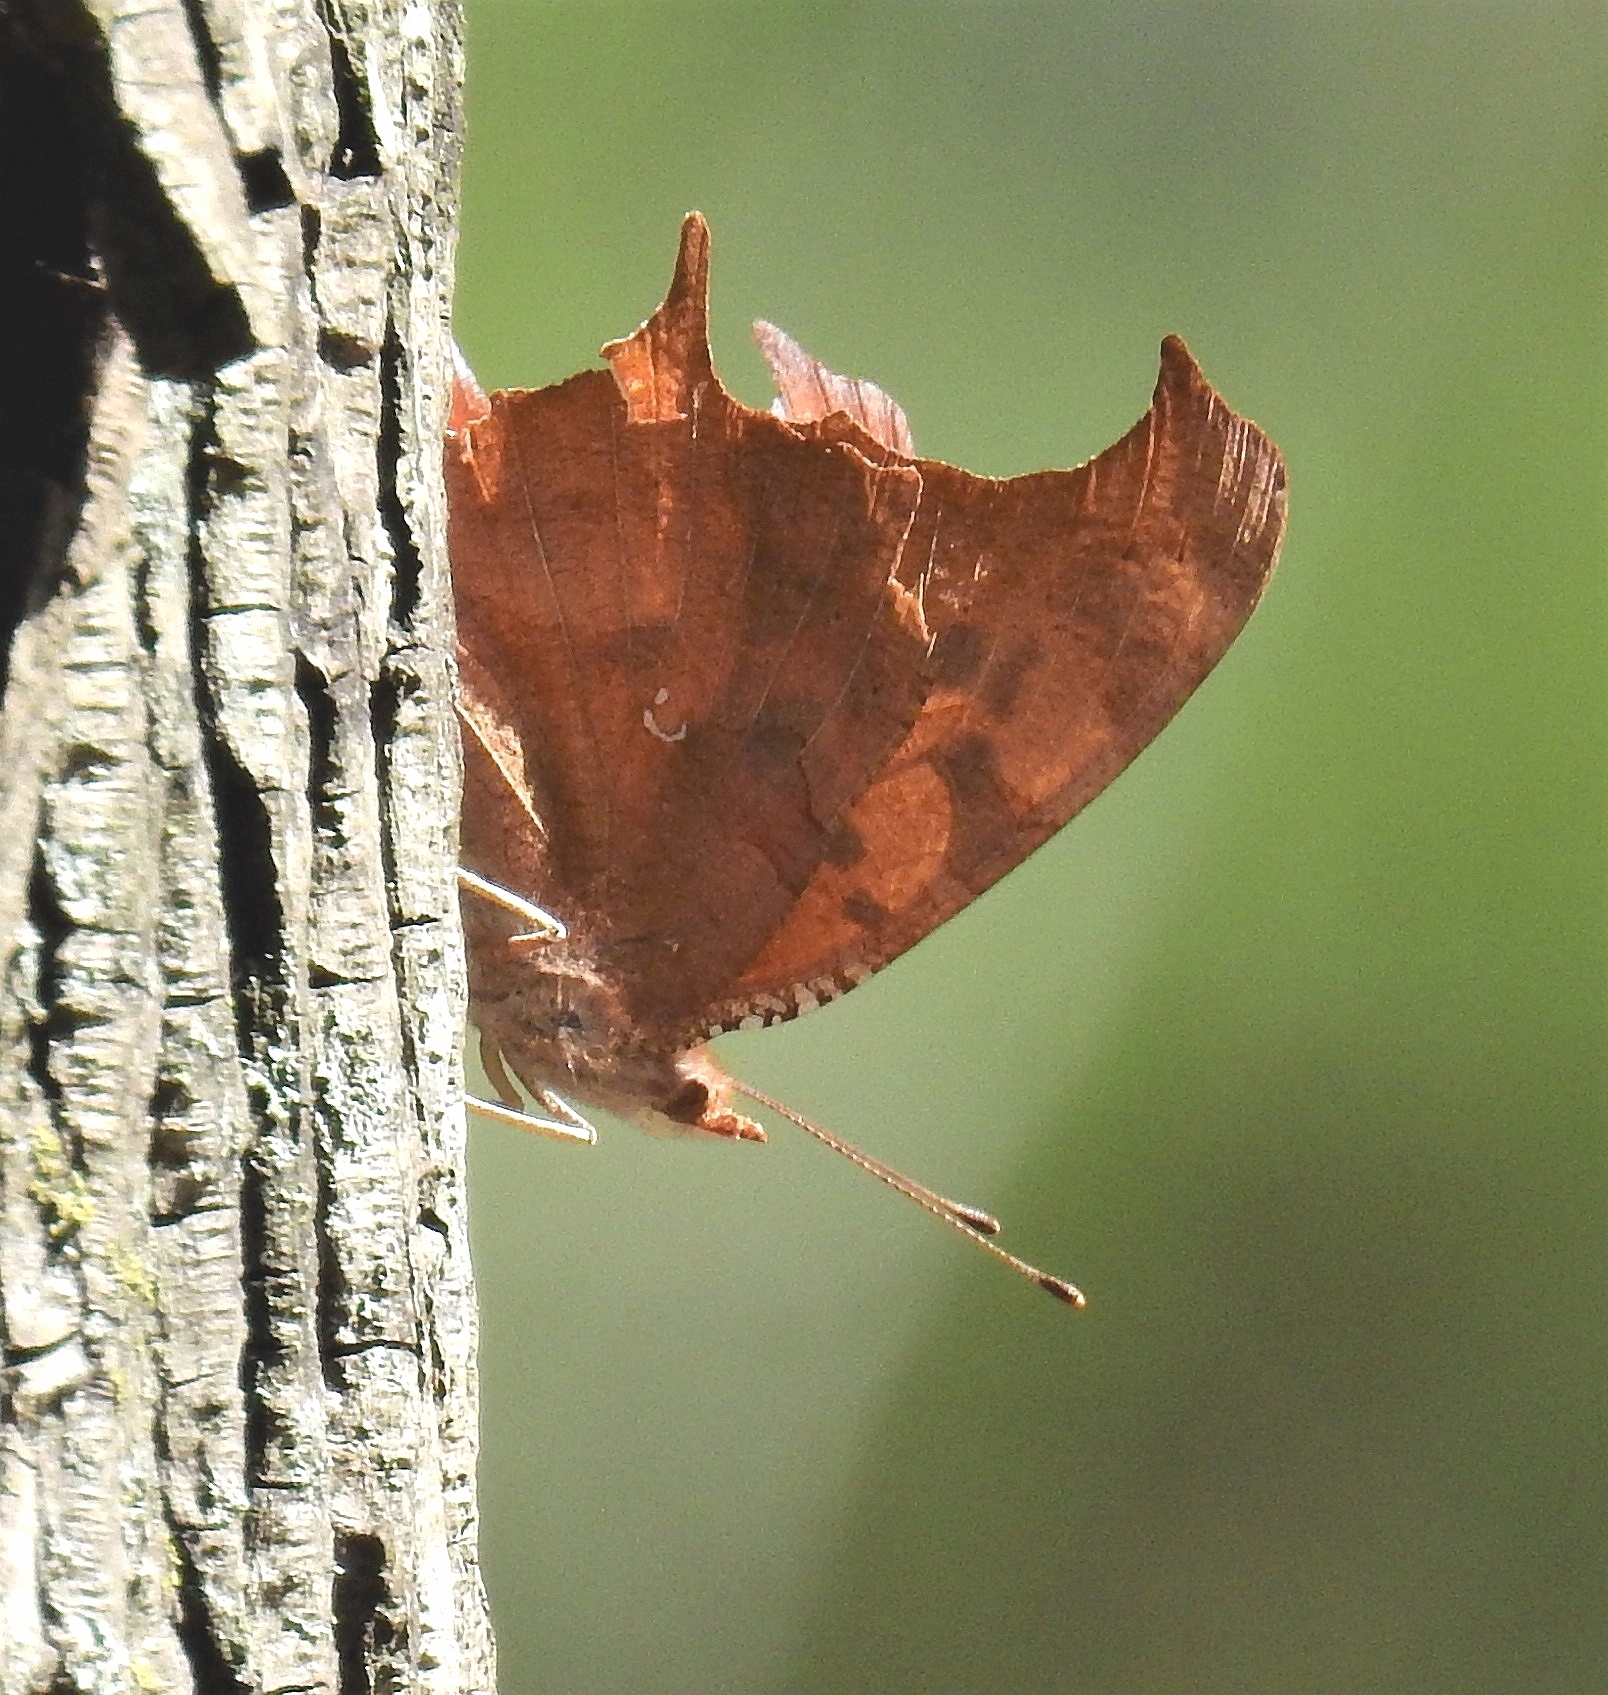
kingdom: Animalia
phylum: Arthropoda
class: Insecta
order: Lepidoptera
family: Nymphalidae
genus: Polygonia
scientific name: Polygonia interrogationis
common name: Question mark
